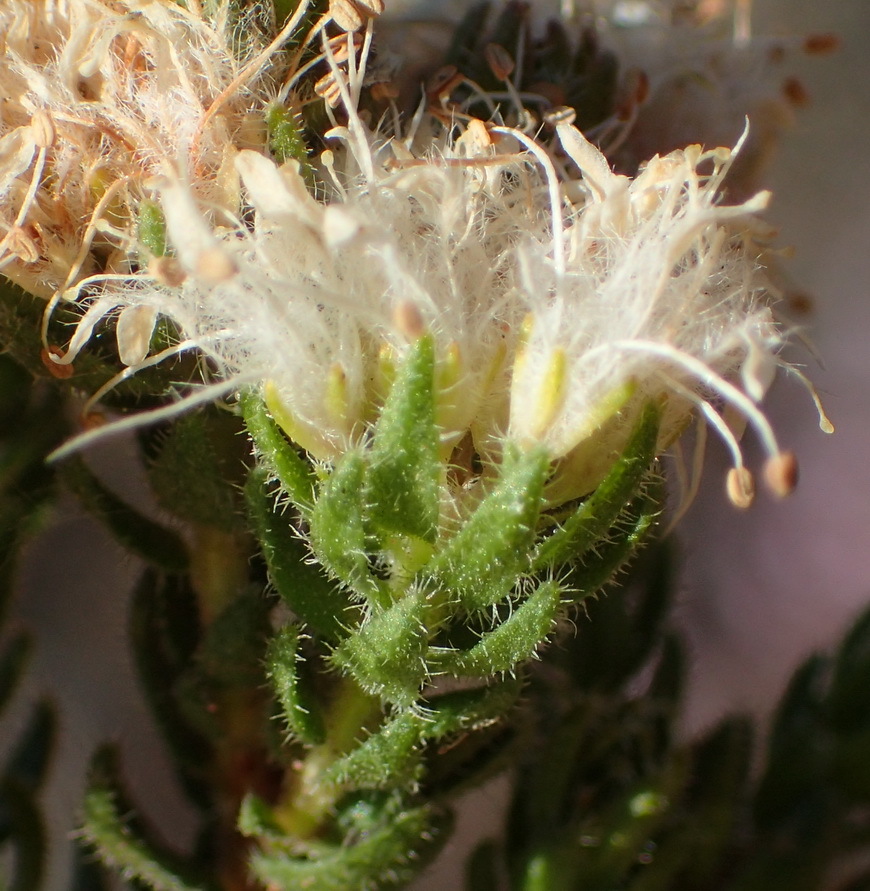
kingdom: Plantae
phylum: Tracheophyta
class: Magnoliopsida
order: Sapindales
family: Rutaceae
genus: Agathosma
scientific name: Agathosma
